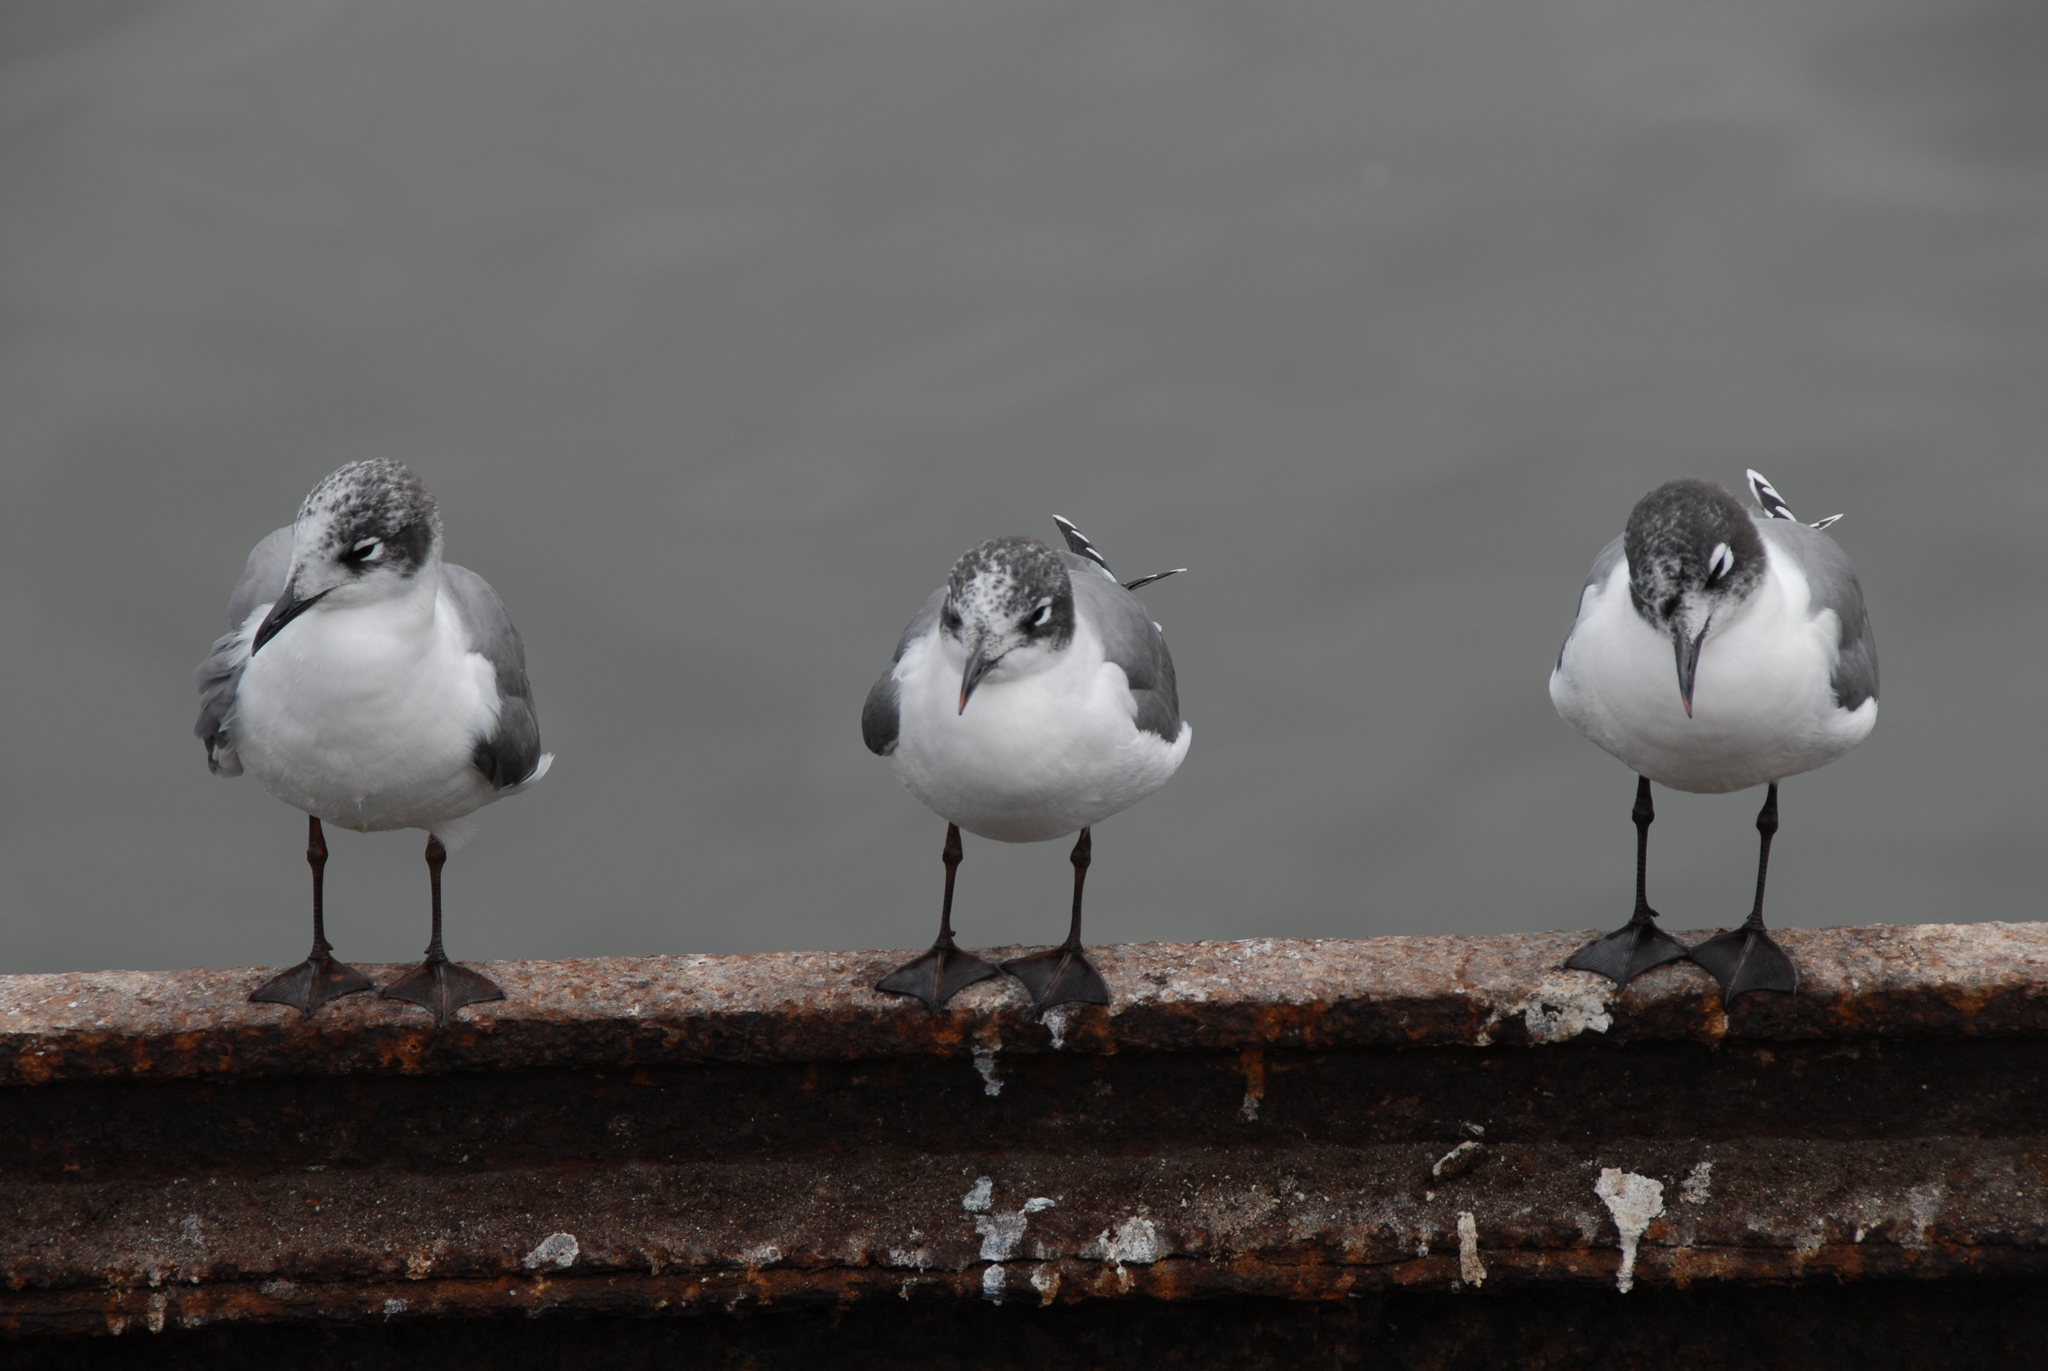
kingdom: Animalia
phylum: Chordata
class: Aves
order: Charadriiformes
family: Laridae
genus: Leucophaeus
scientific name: Leucophaeus pipixcan
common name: Franklin's gull
